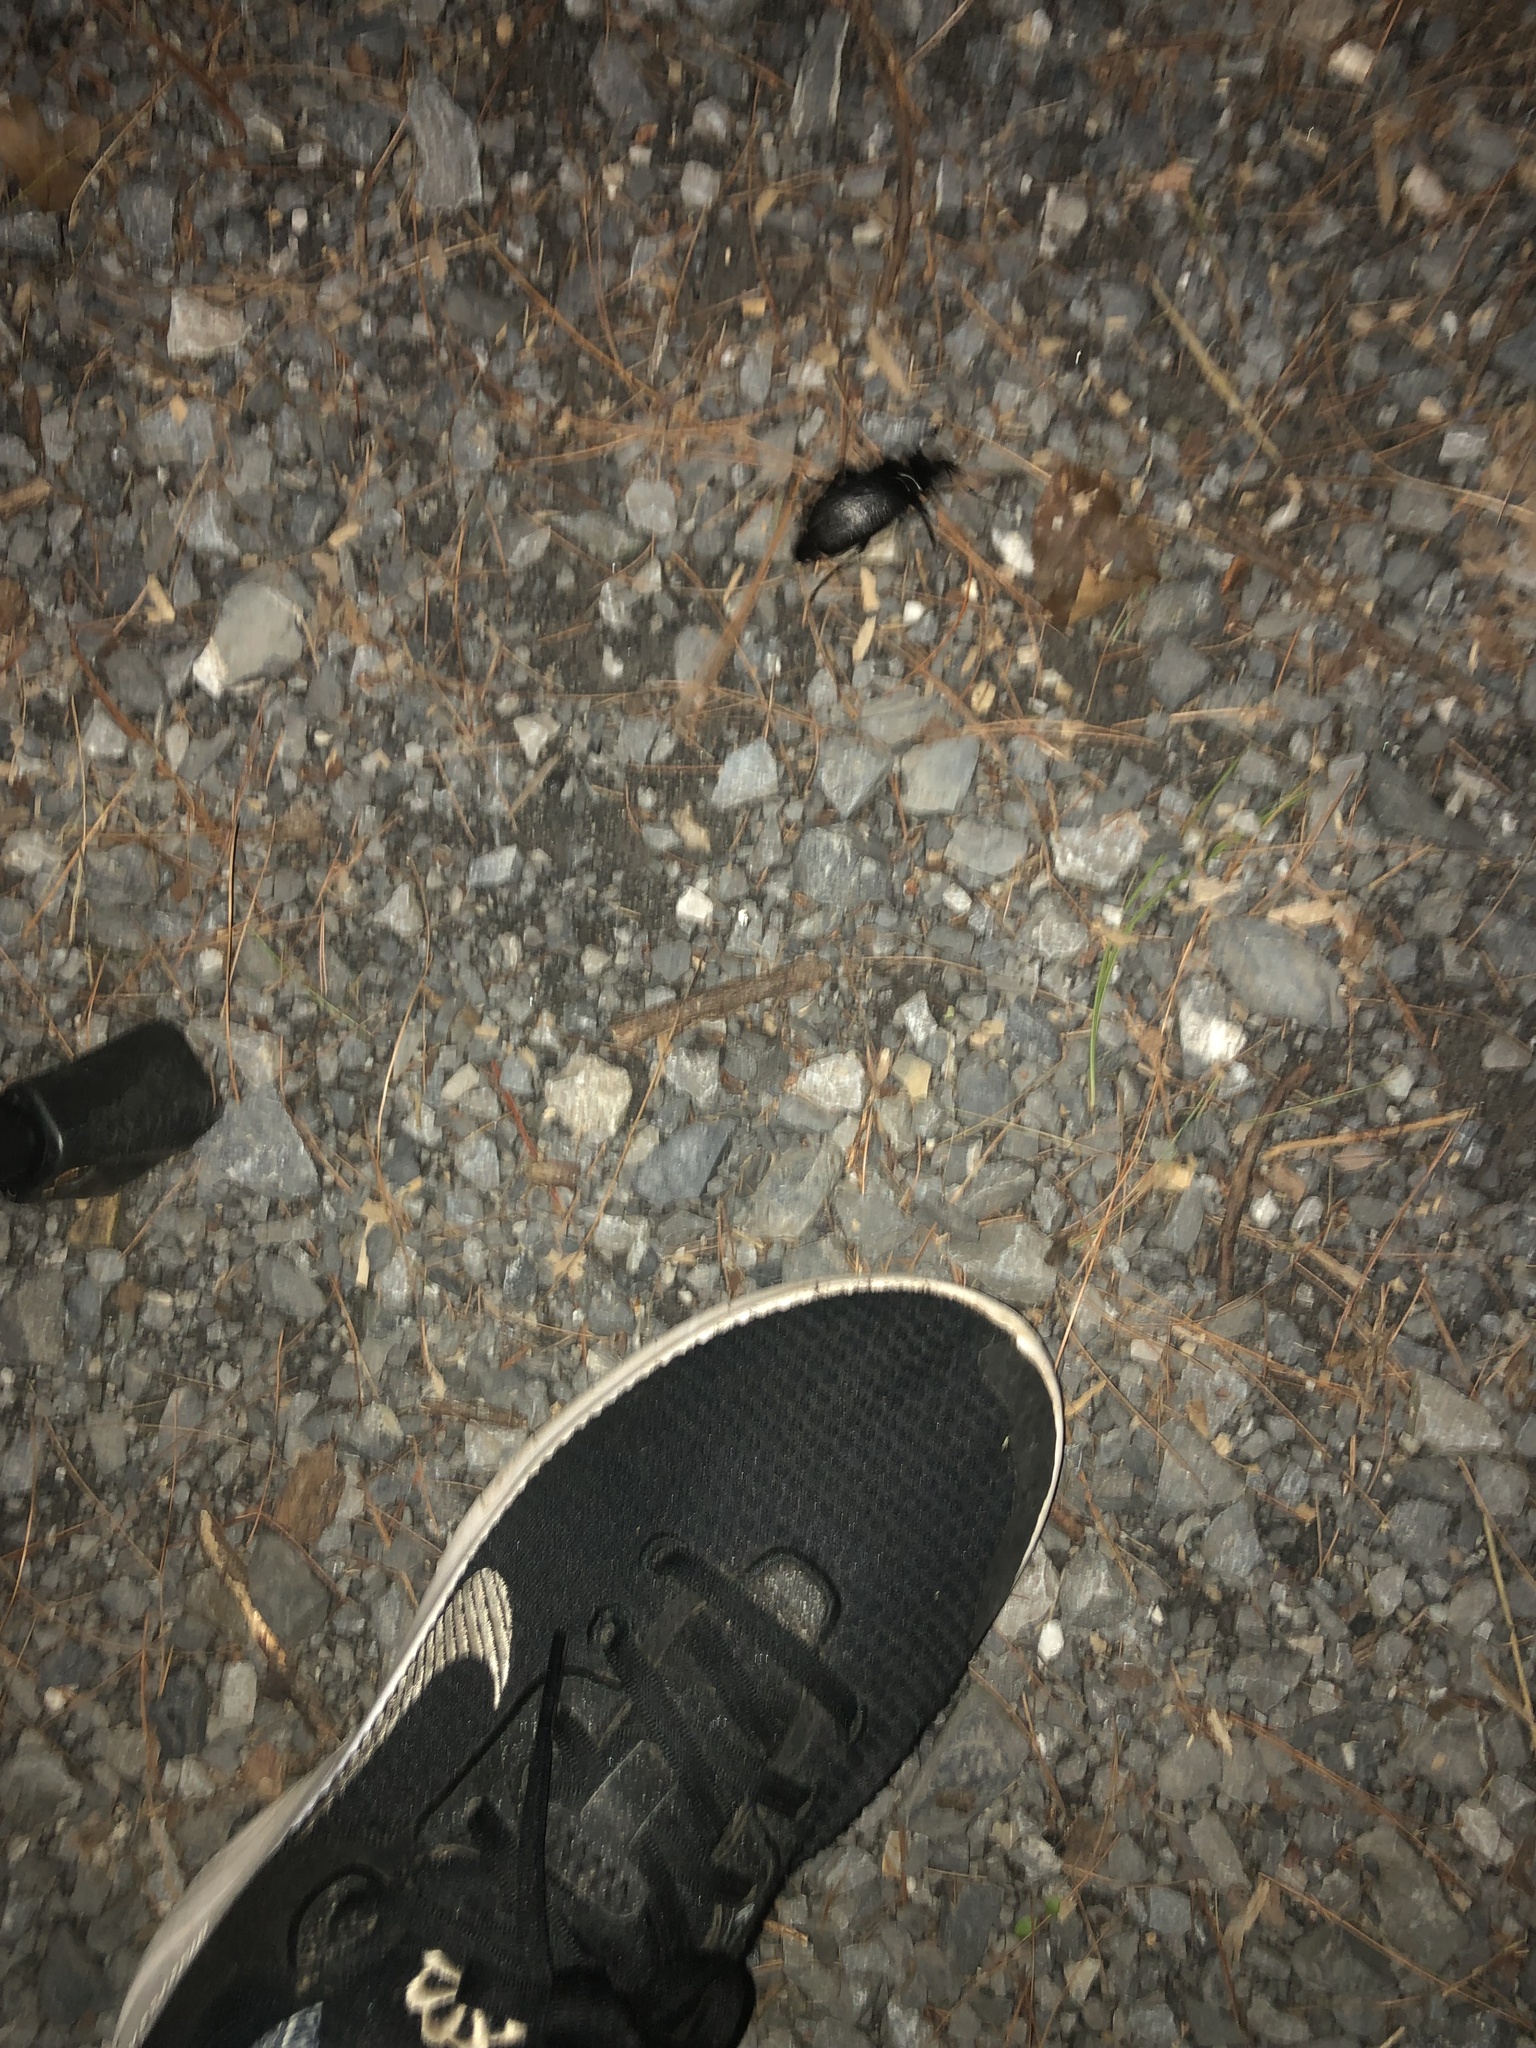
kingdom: Animalia
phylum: Arthropoda
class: Insecta
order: Coleoptera
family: Cerambycidae
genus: Prionus
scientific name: Prionus laticollis
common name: Broad necked prionus
